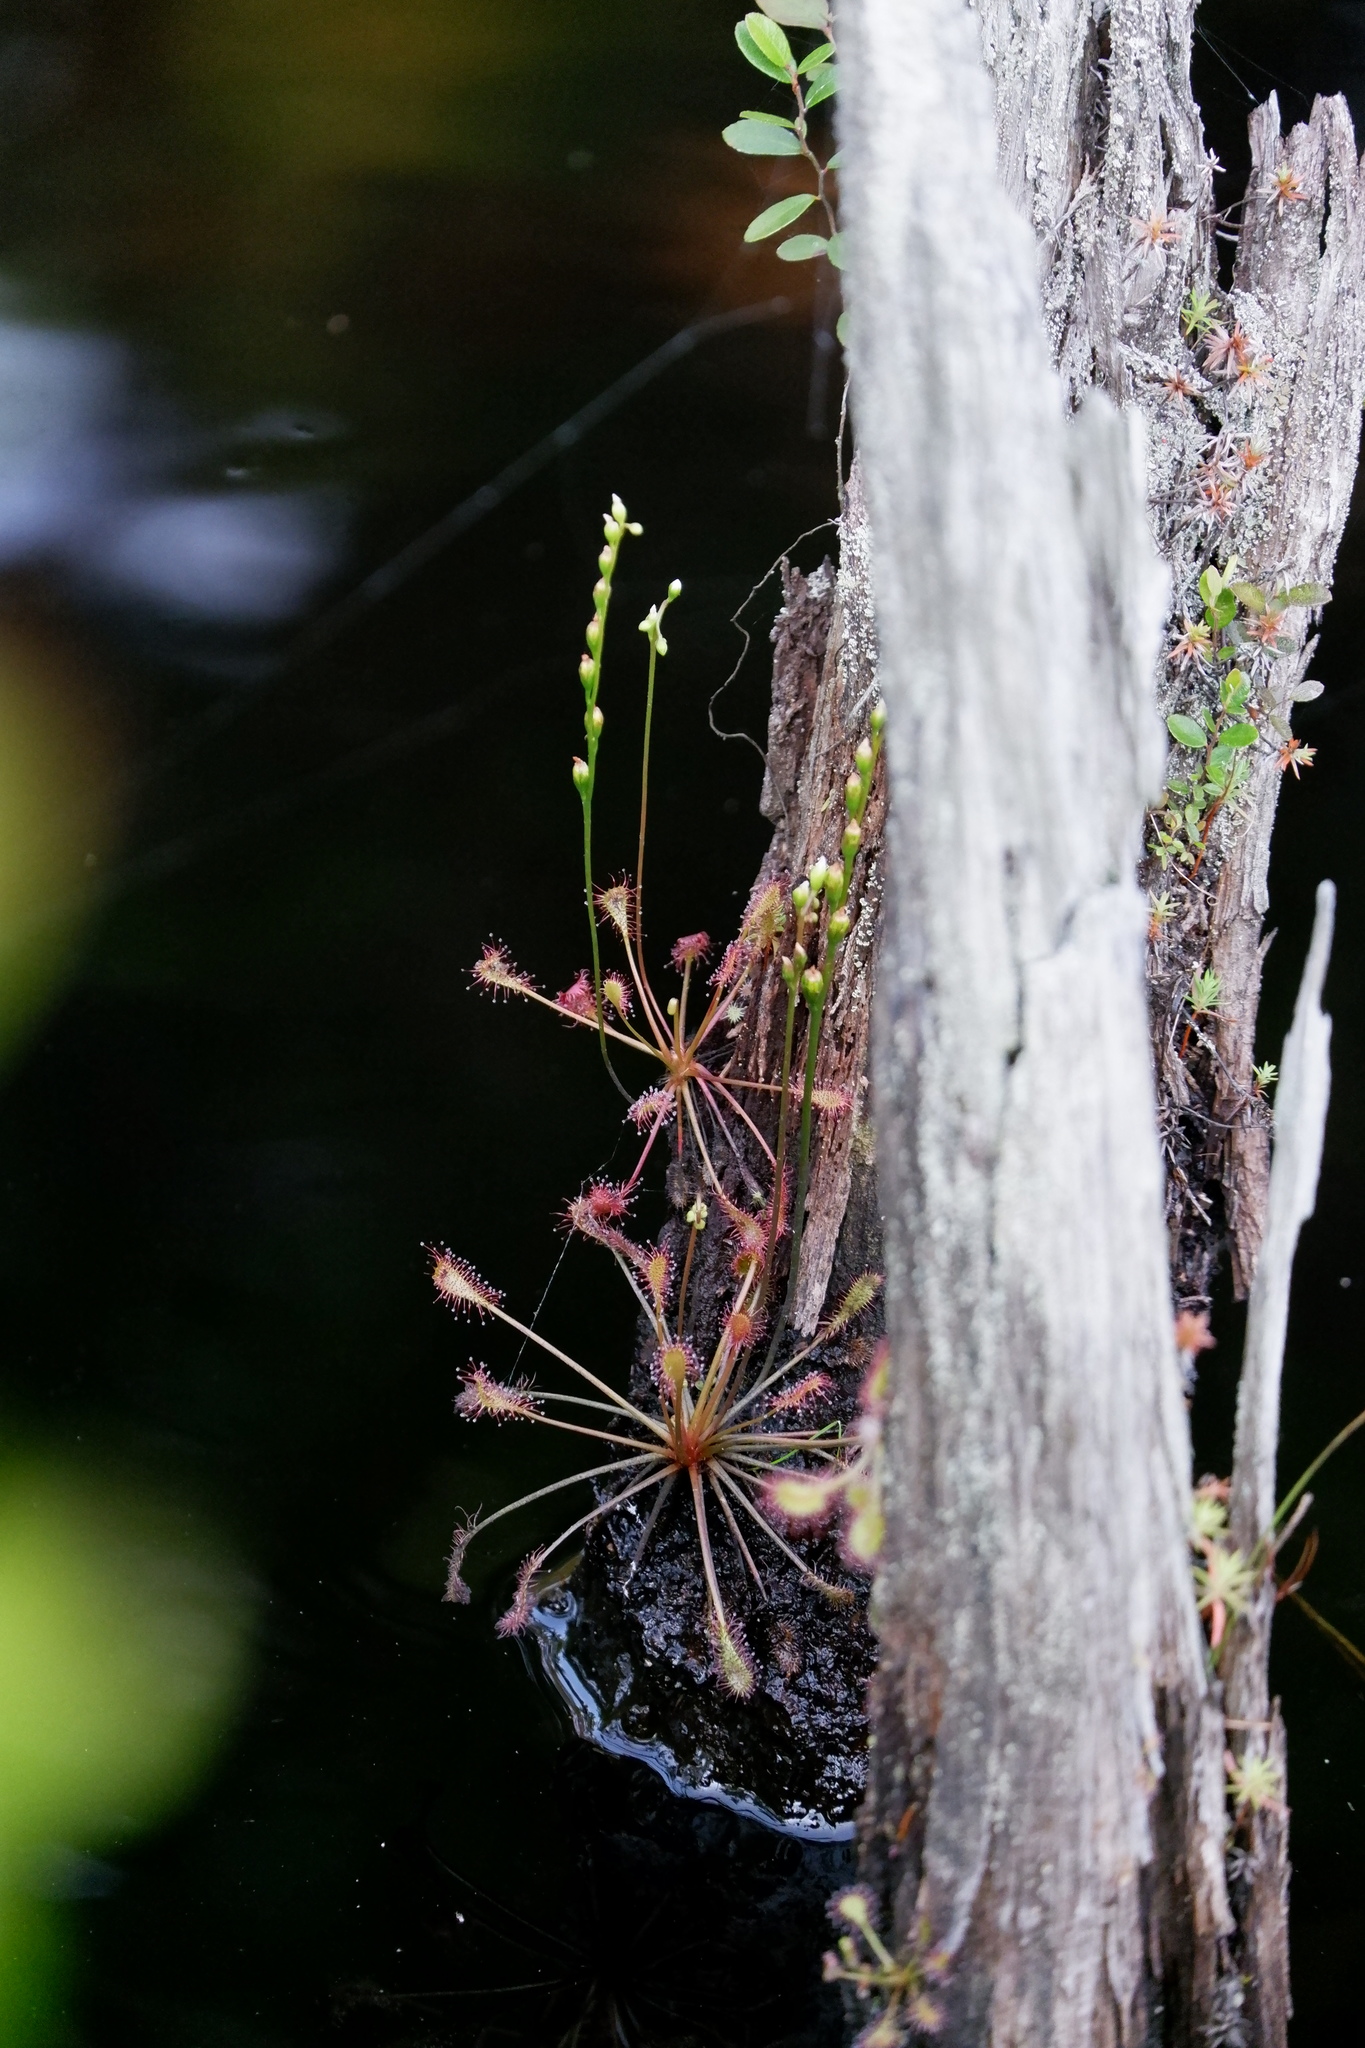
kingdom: Plantae
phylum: Tracheophyta
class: Magnoliopsida
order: Caryophyllales
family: Droseraceae
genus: Drosera
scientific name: Drosera intermedia
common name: Oblong-leaved sundew
